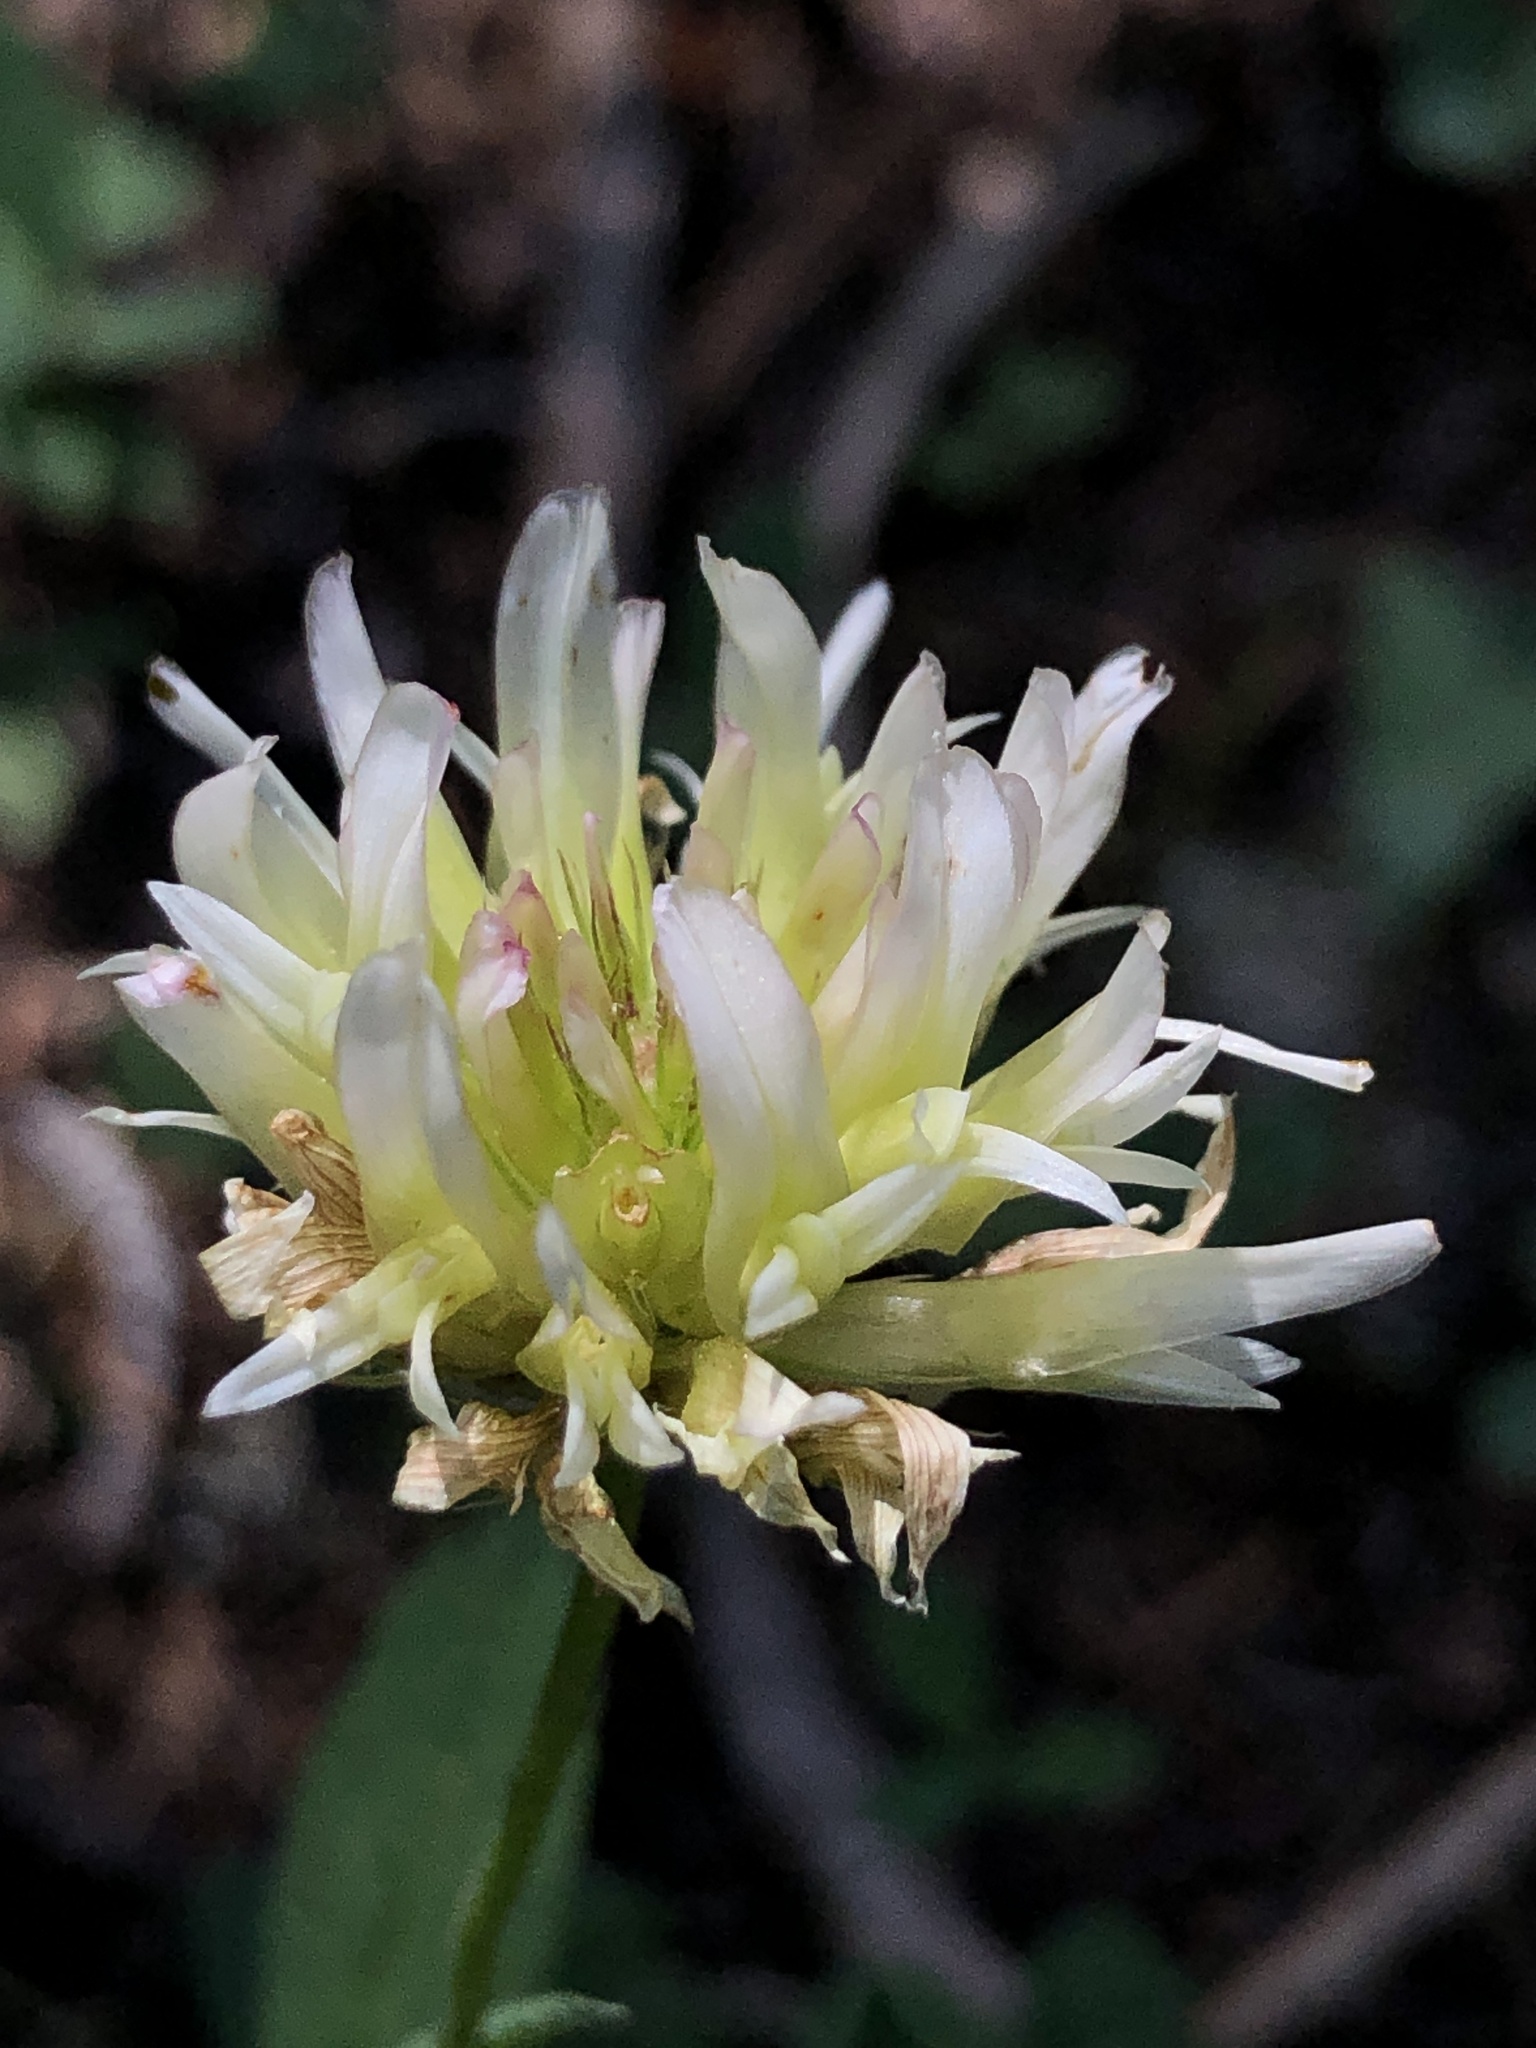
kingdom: Plantae
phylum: Tracheophyta
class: Magnoliopsida
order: Fabales
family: Fabaceae
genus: Trifolium
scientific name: Trifolium longipes
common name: Long-stalk clover
